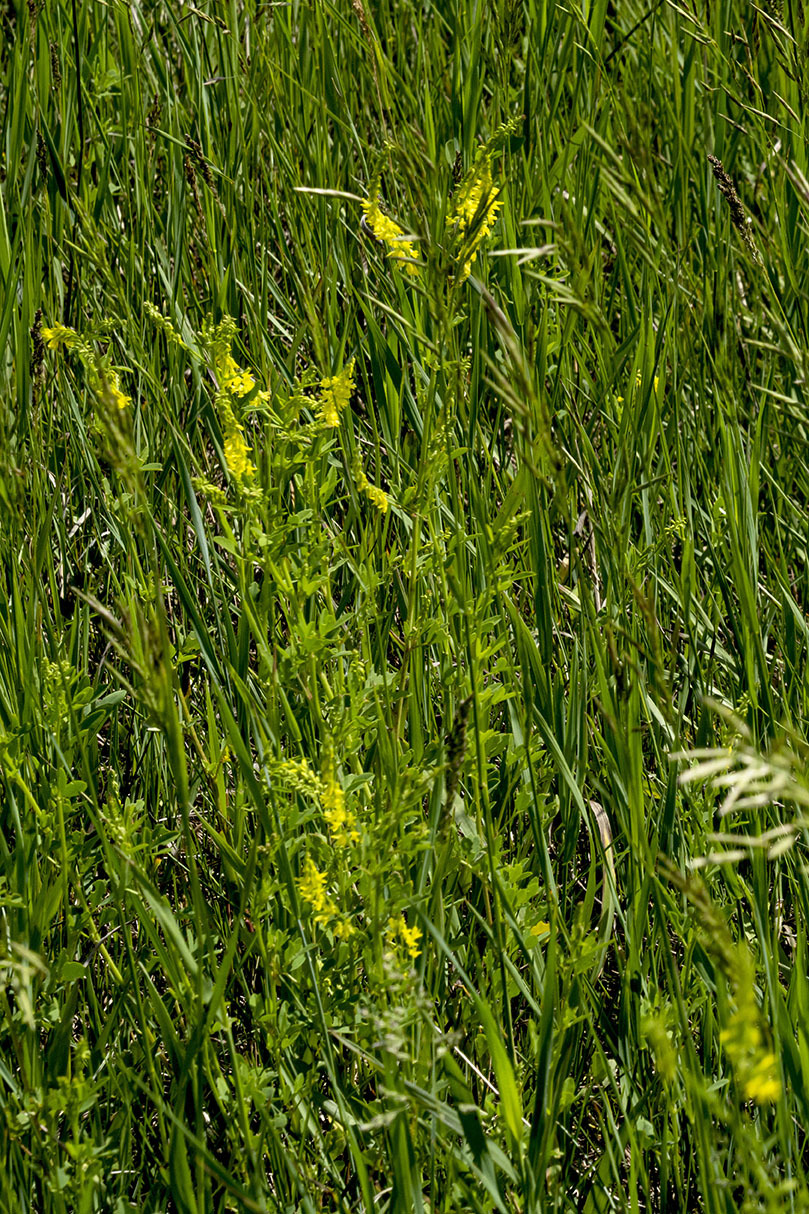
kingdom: Plantae
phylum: Tracheophyta
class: Magnoliopsida
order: Fabales
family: Fabaceae
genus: Melilotus
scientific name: Melilotus officinalis
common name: Sweetclover
